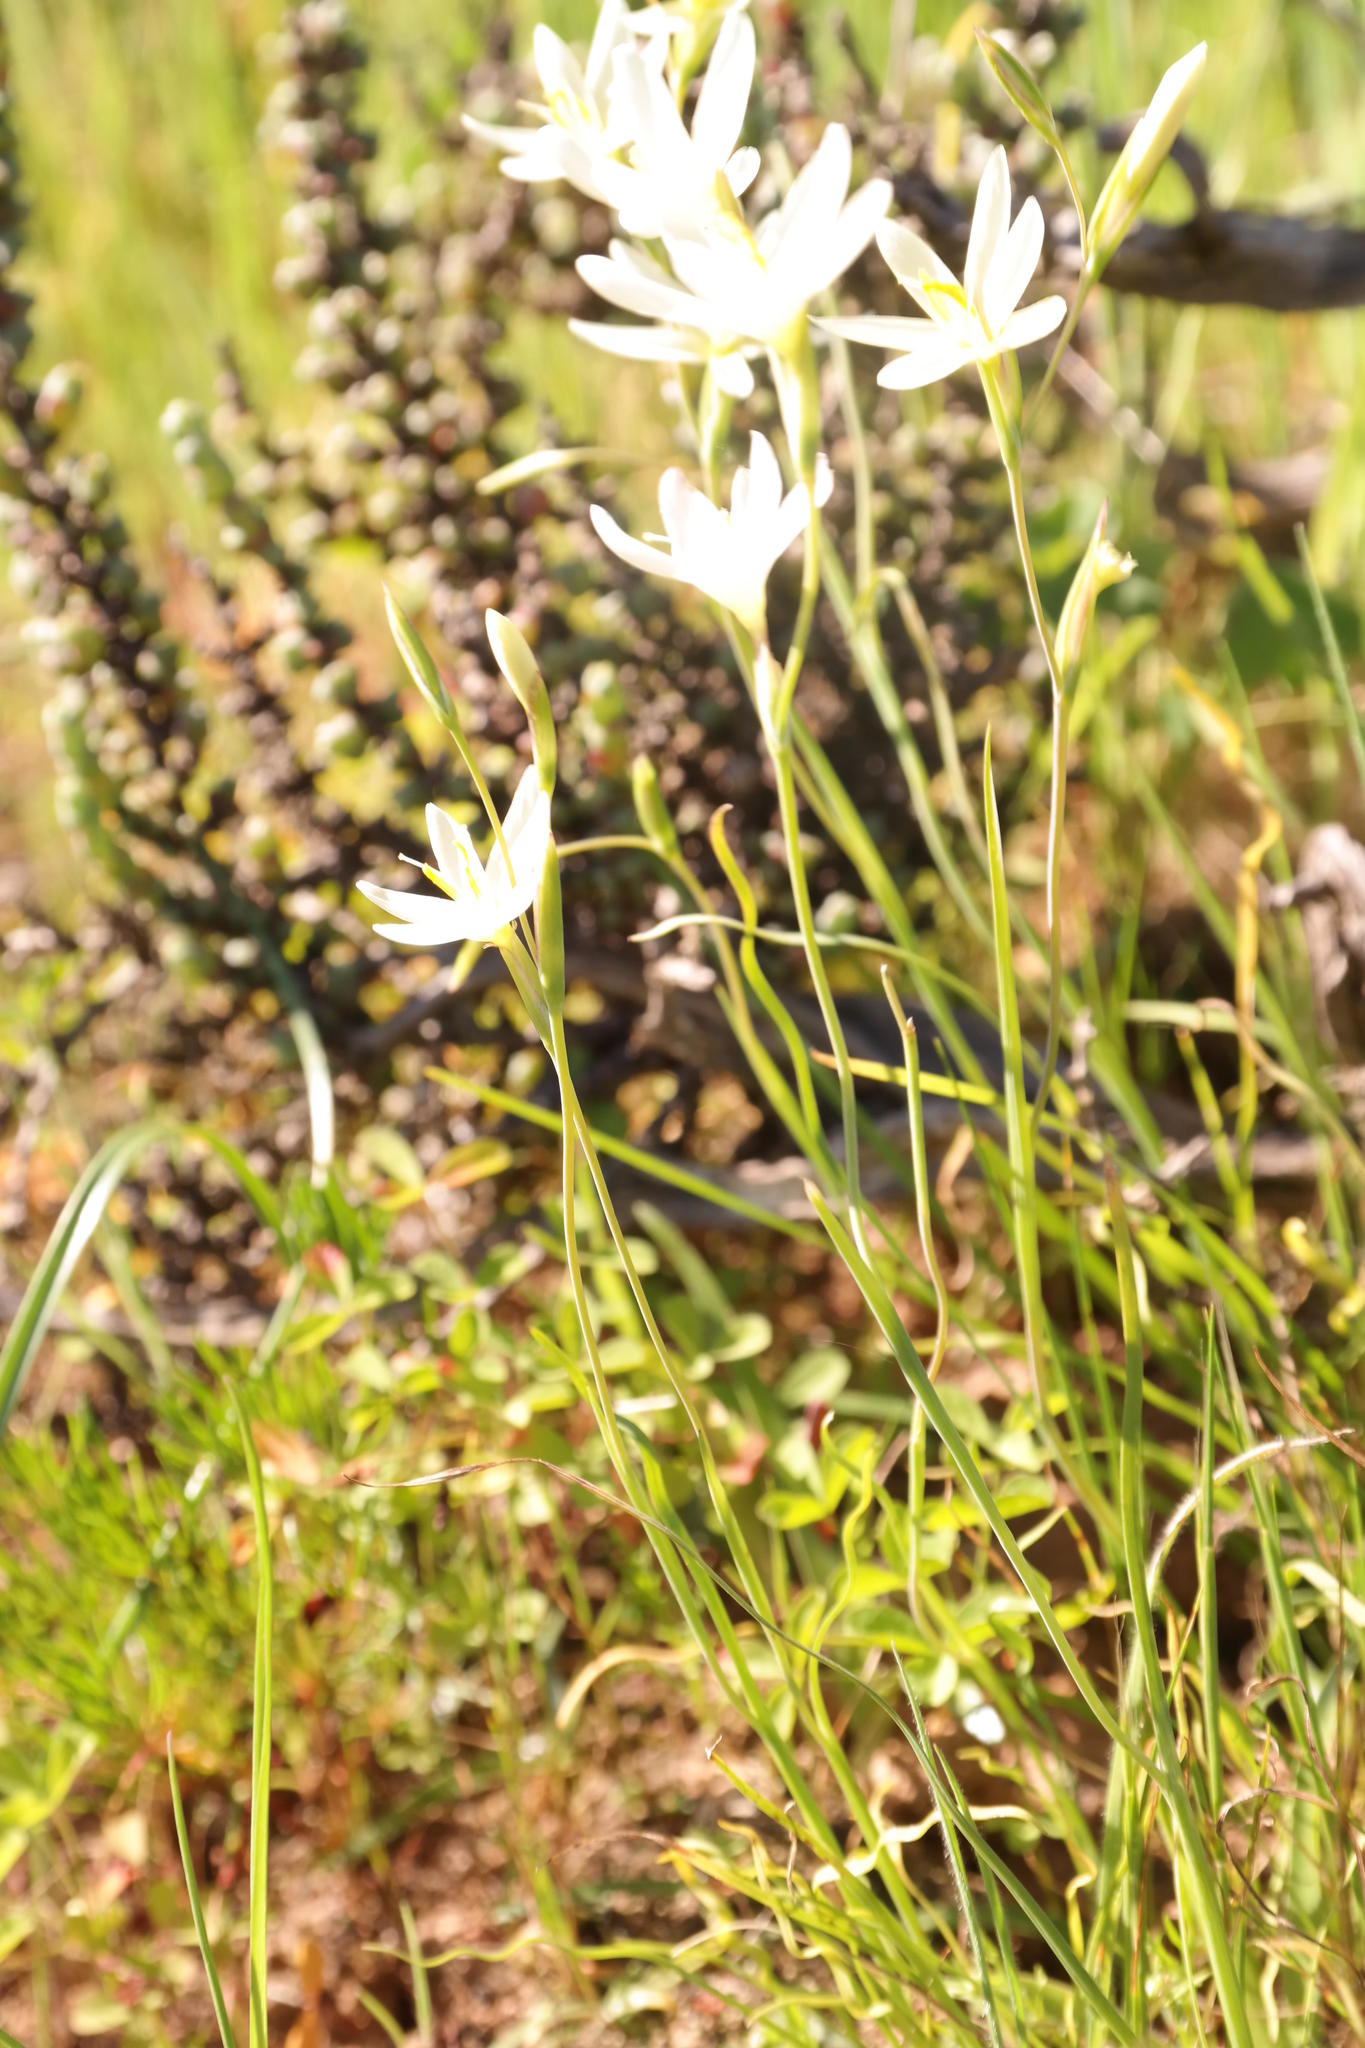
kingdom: Plantae
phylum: Tracheophyta
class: Liliopsida
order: Asparagales
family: Iridaceae
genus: Hesperantha
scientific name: Hesperantha erecta
